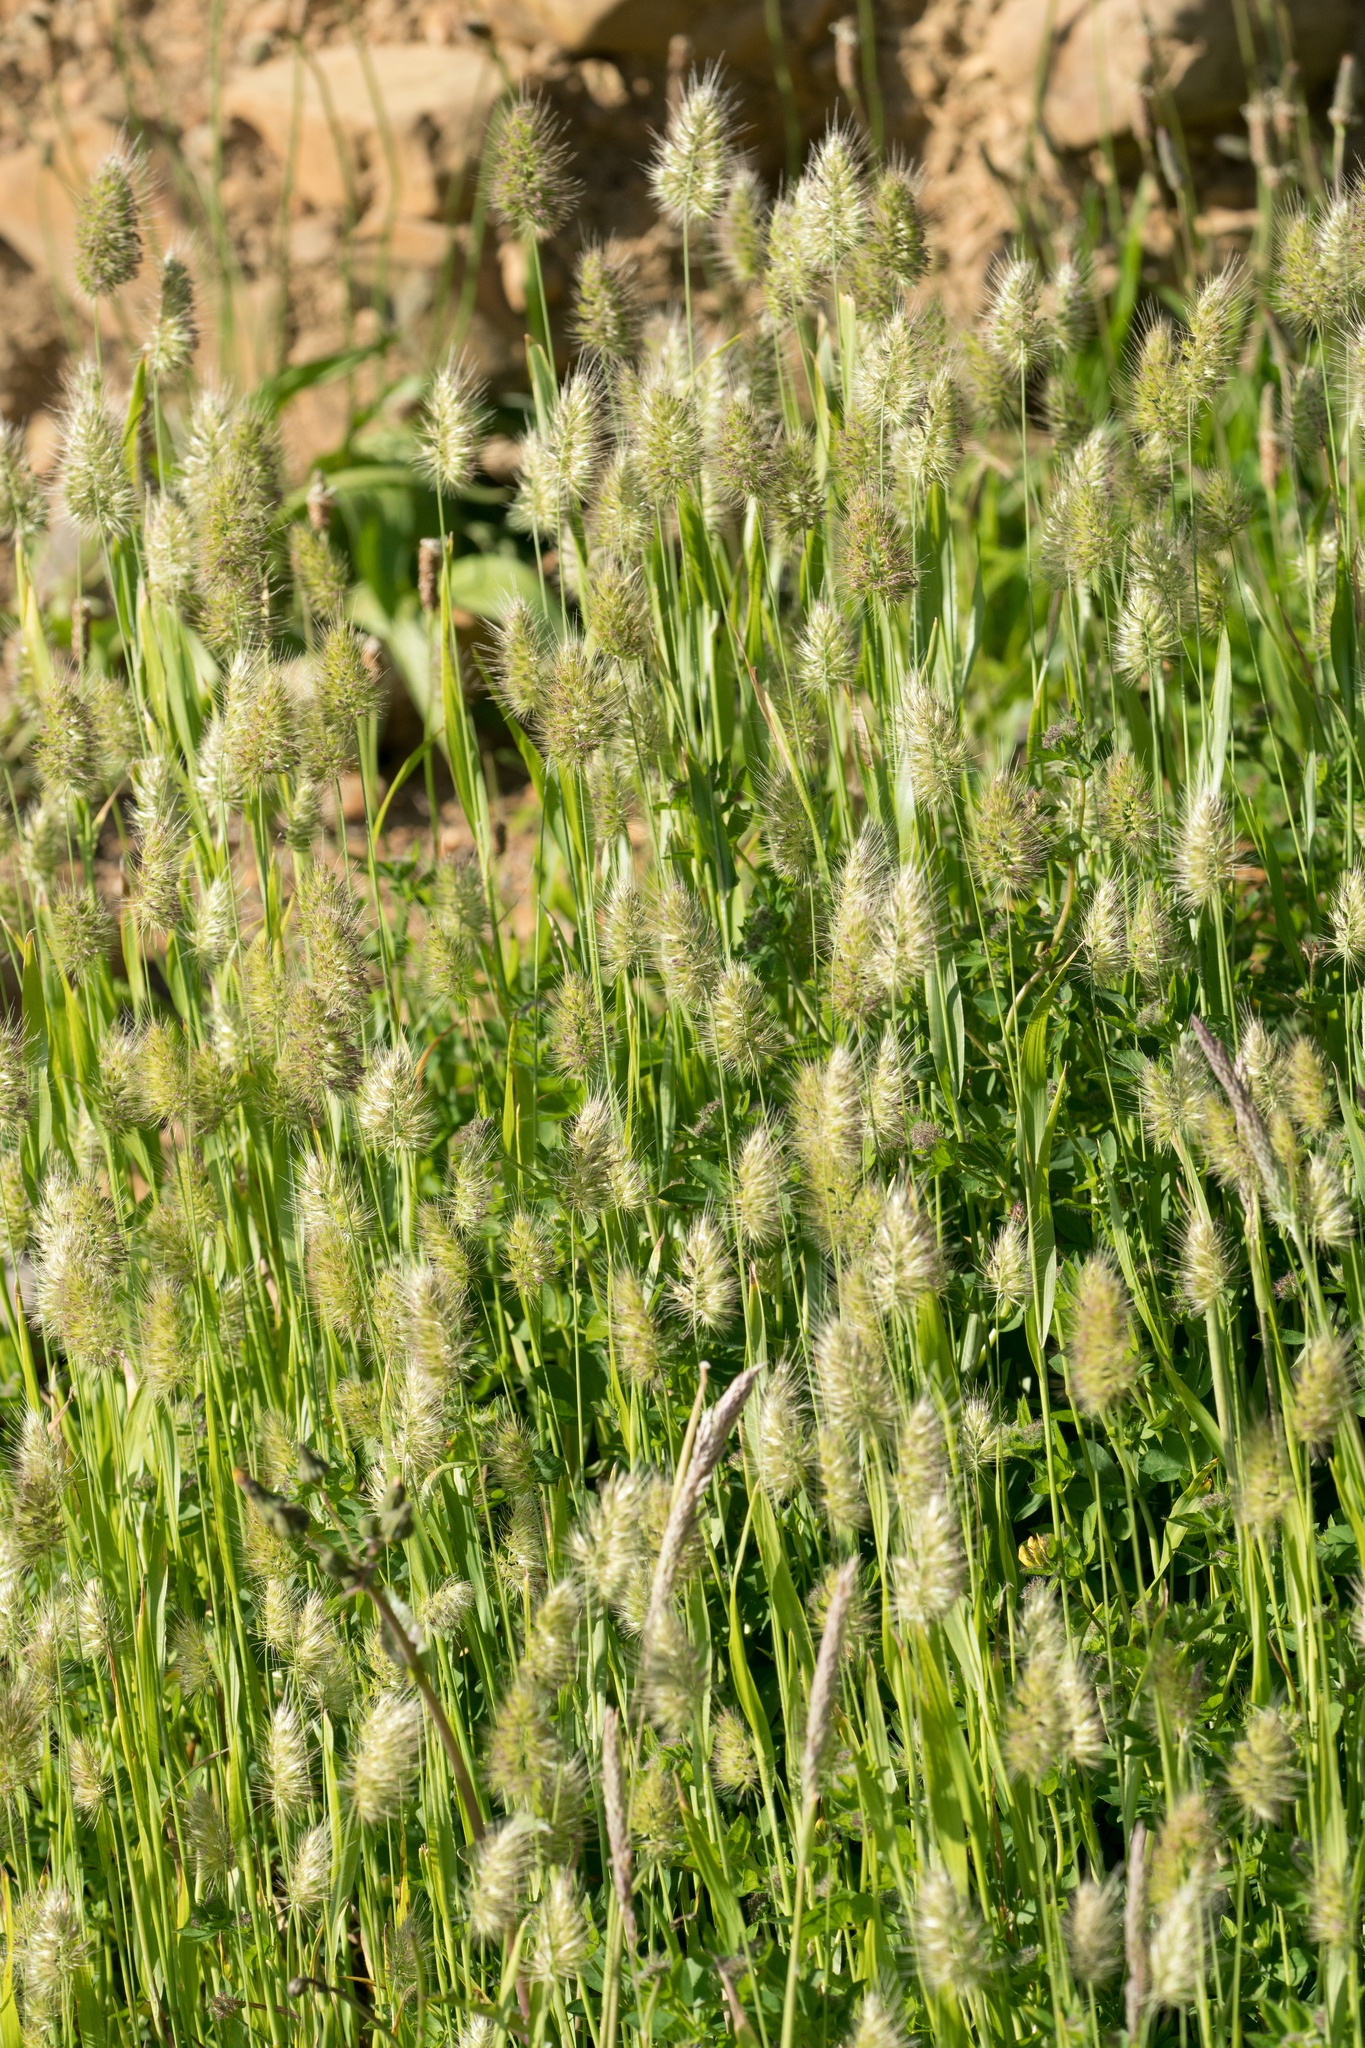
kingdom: Plantae
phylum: Tracheophyta
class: Liliopsida
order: Poales
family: Poaceae
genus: Cynosurus
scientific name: Cynosurus echinatus
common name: Rough dog's-tail
